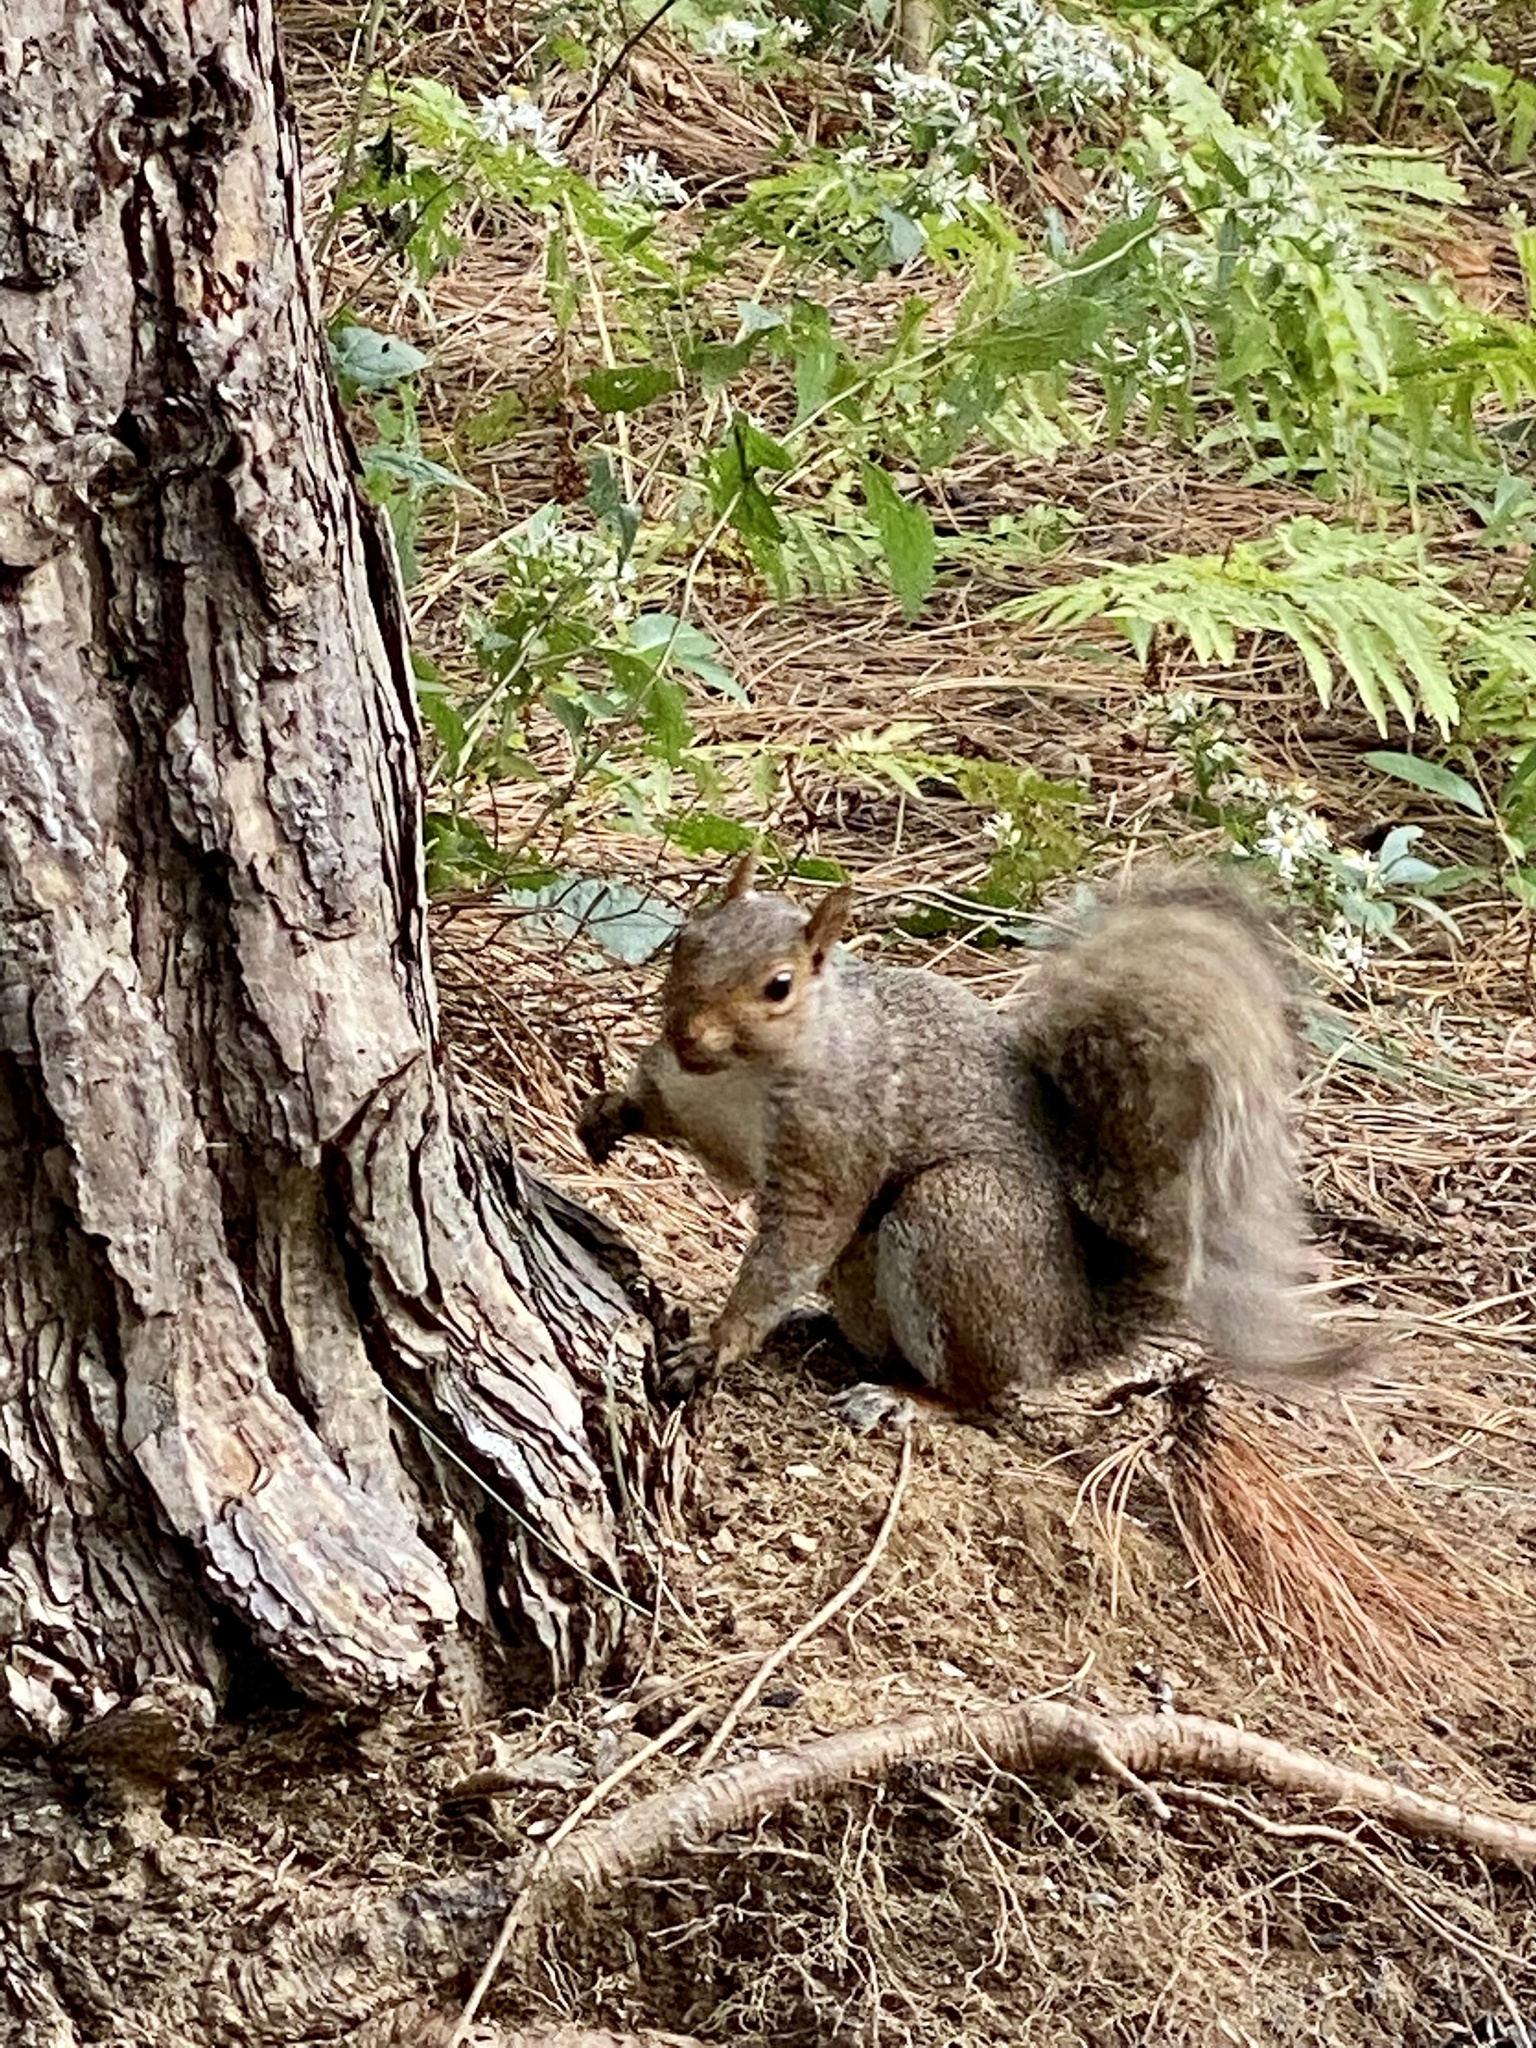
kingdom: Animalia
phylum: Chordata
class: Mammalia
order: Rodentia
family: Sciuridae
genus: Sciurus
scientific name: Sciurus carolinensis
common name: Eastern gray squirrel
